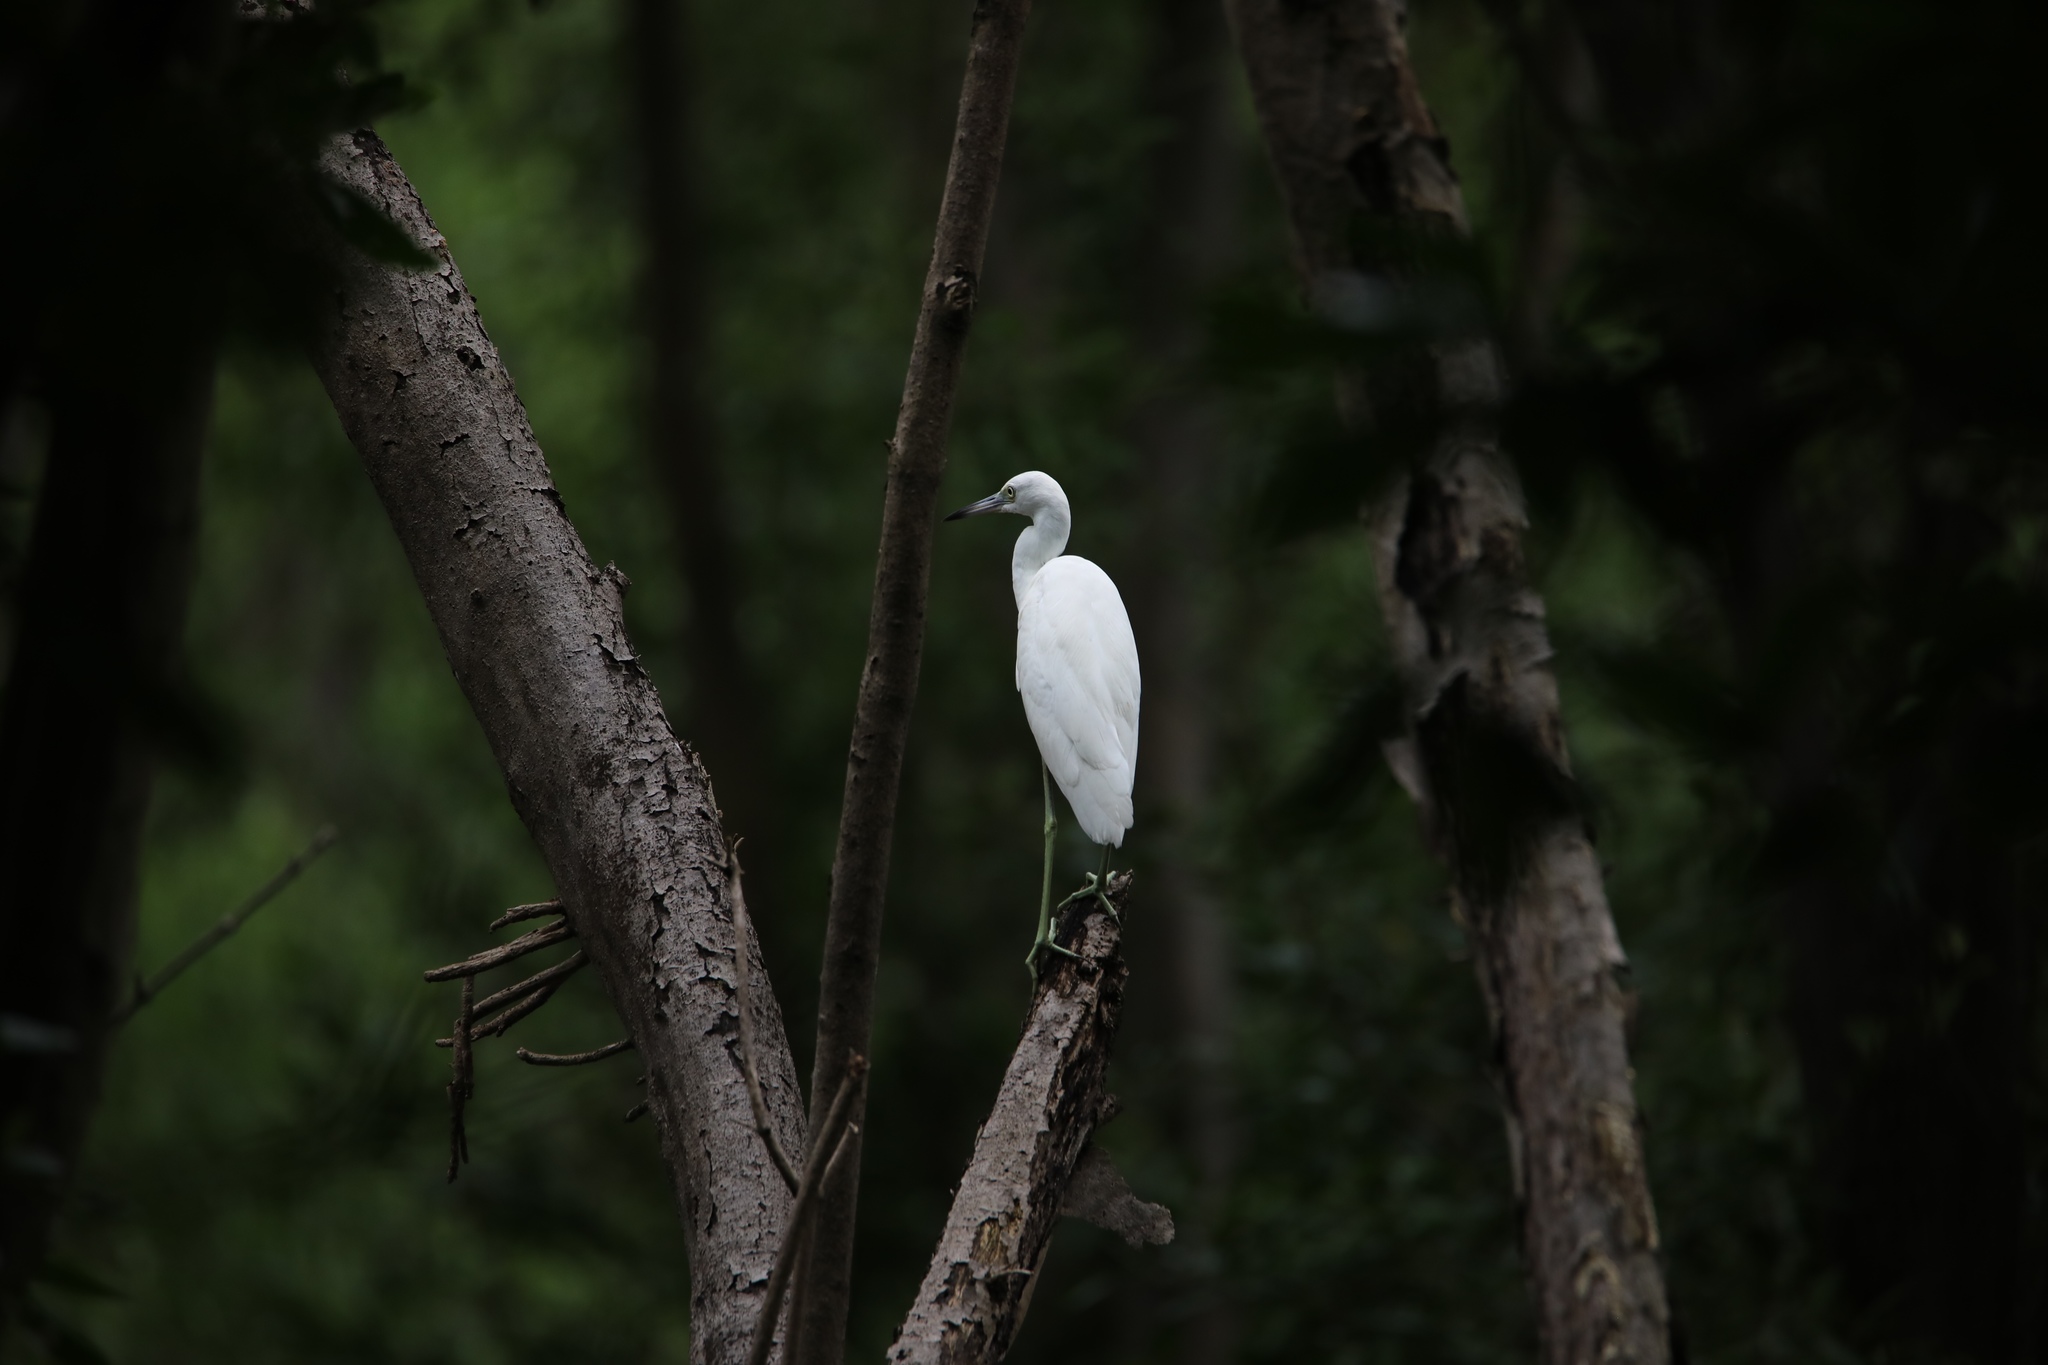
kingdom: Animalia
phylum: Chordata
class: Aves
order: Pelecaniformes
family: Ardeidae
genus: Egretta
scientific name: Egretta caerulea
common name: Little blue heron
